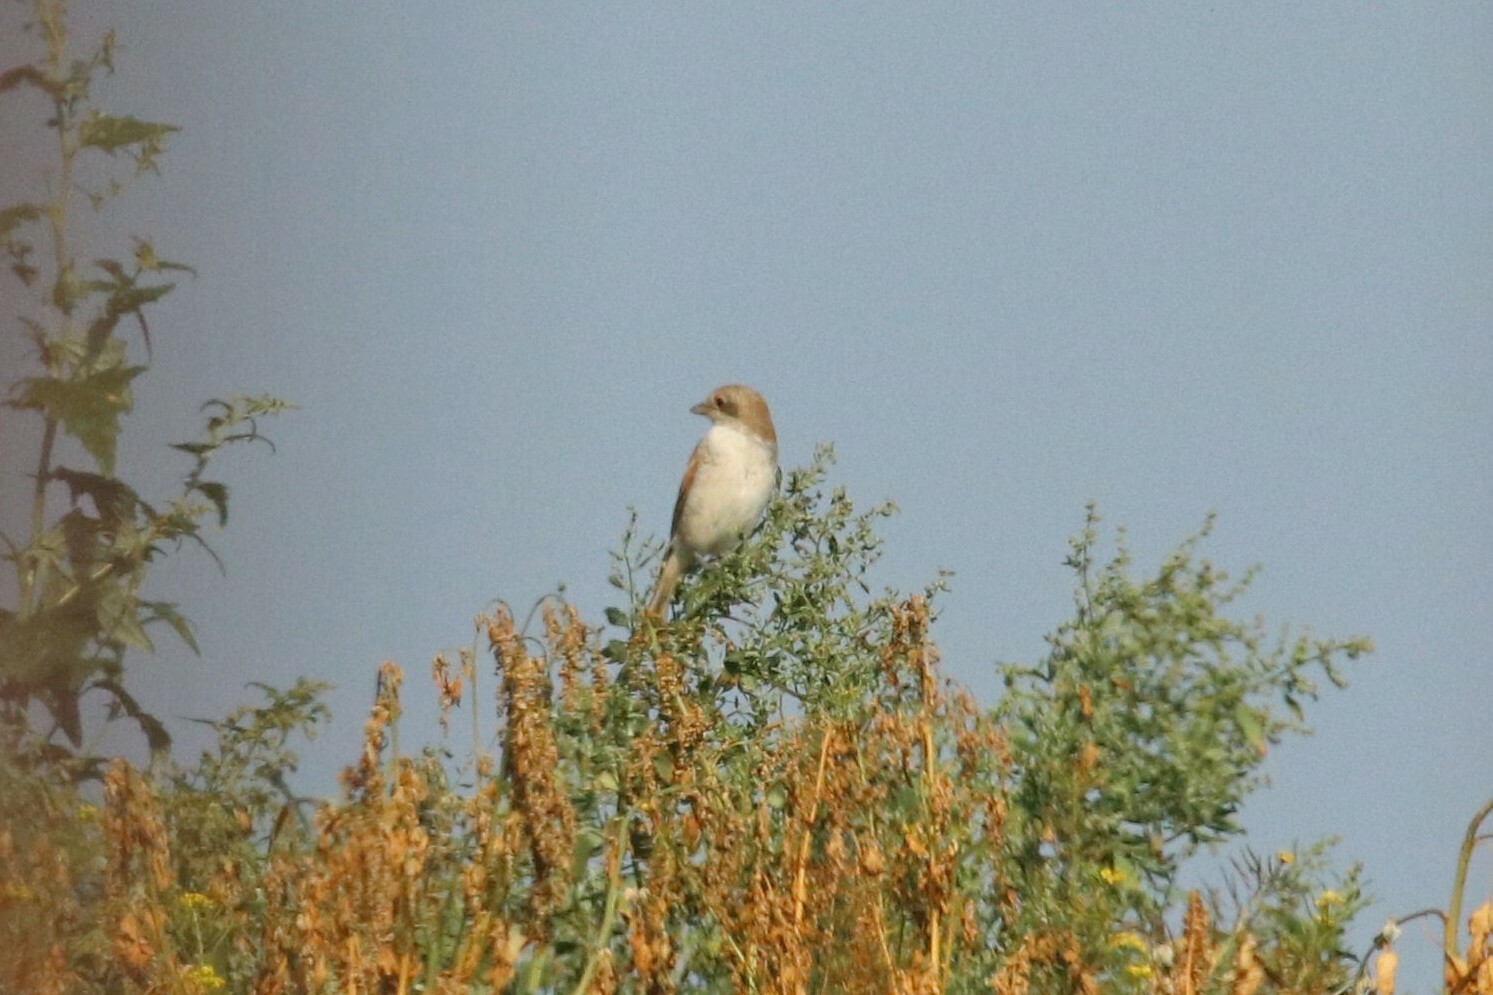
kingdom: Animalia
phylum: Chordata
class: Aves
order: Passeriformes
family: Laniidae
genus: Lanius
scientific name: Lanius collurio
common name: Red-backed shrike
